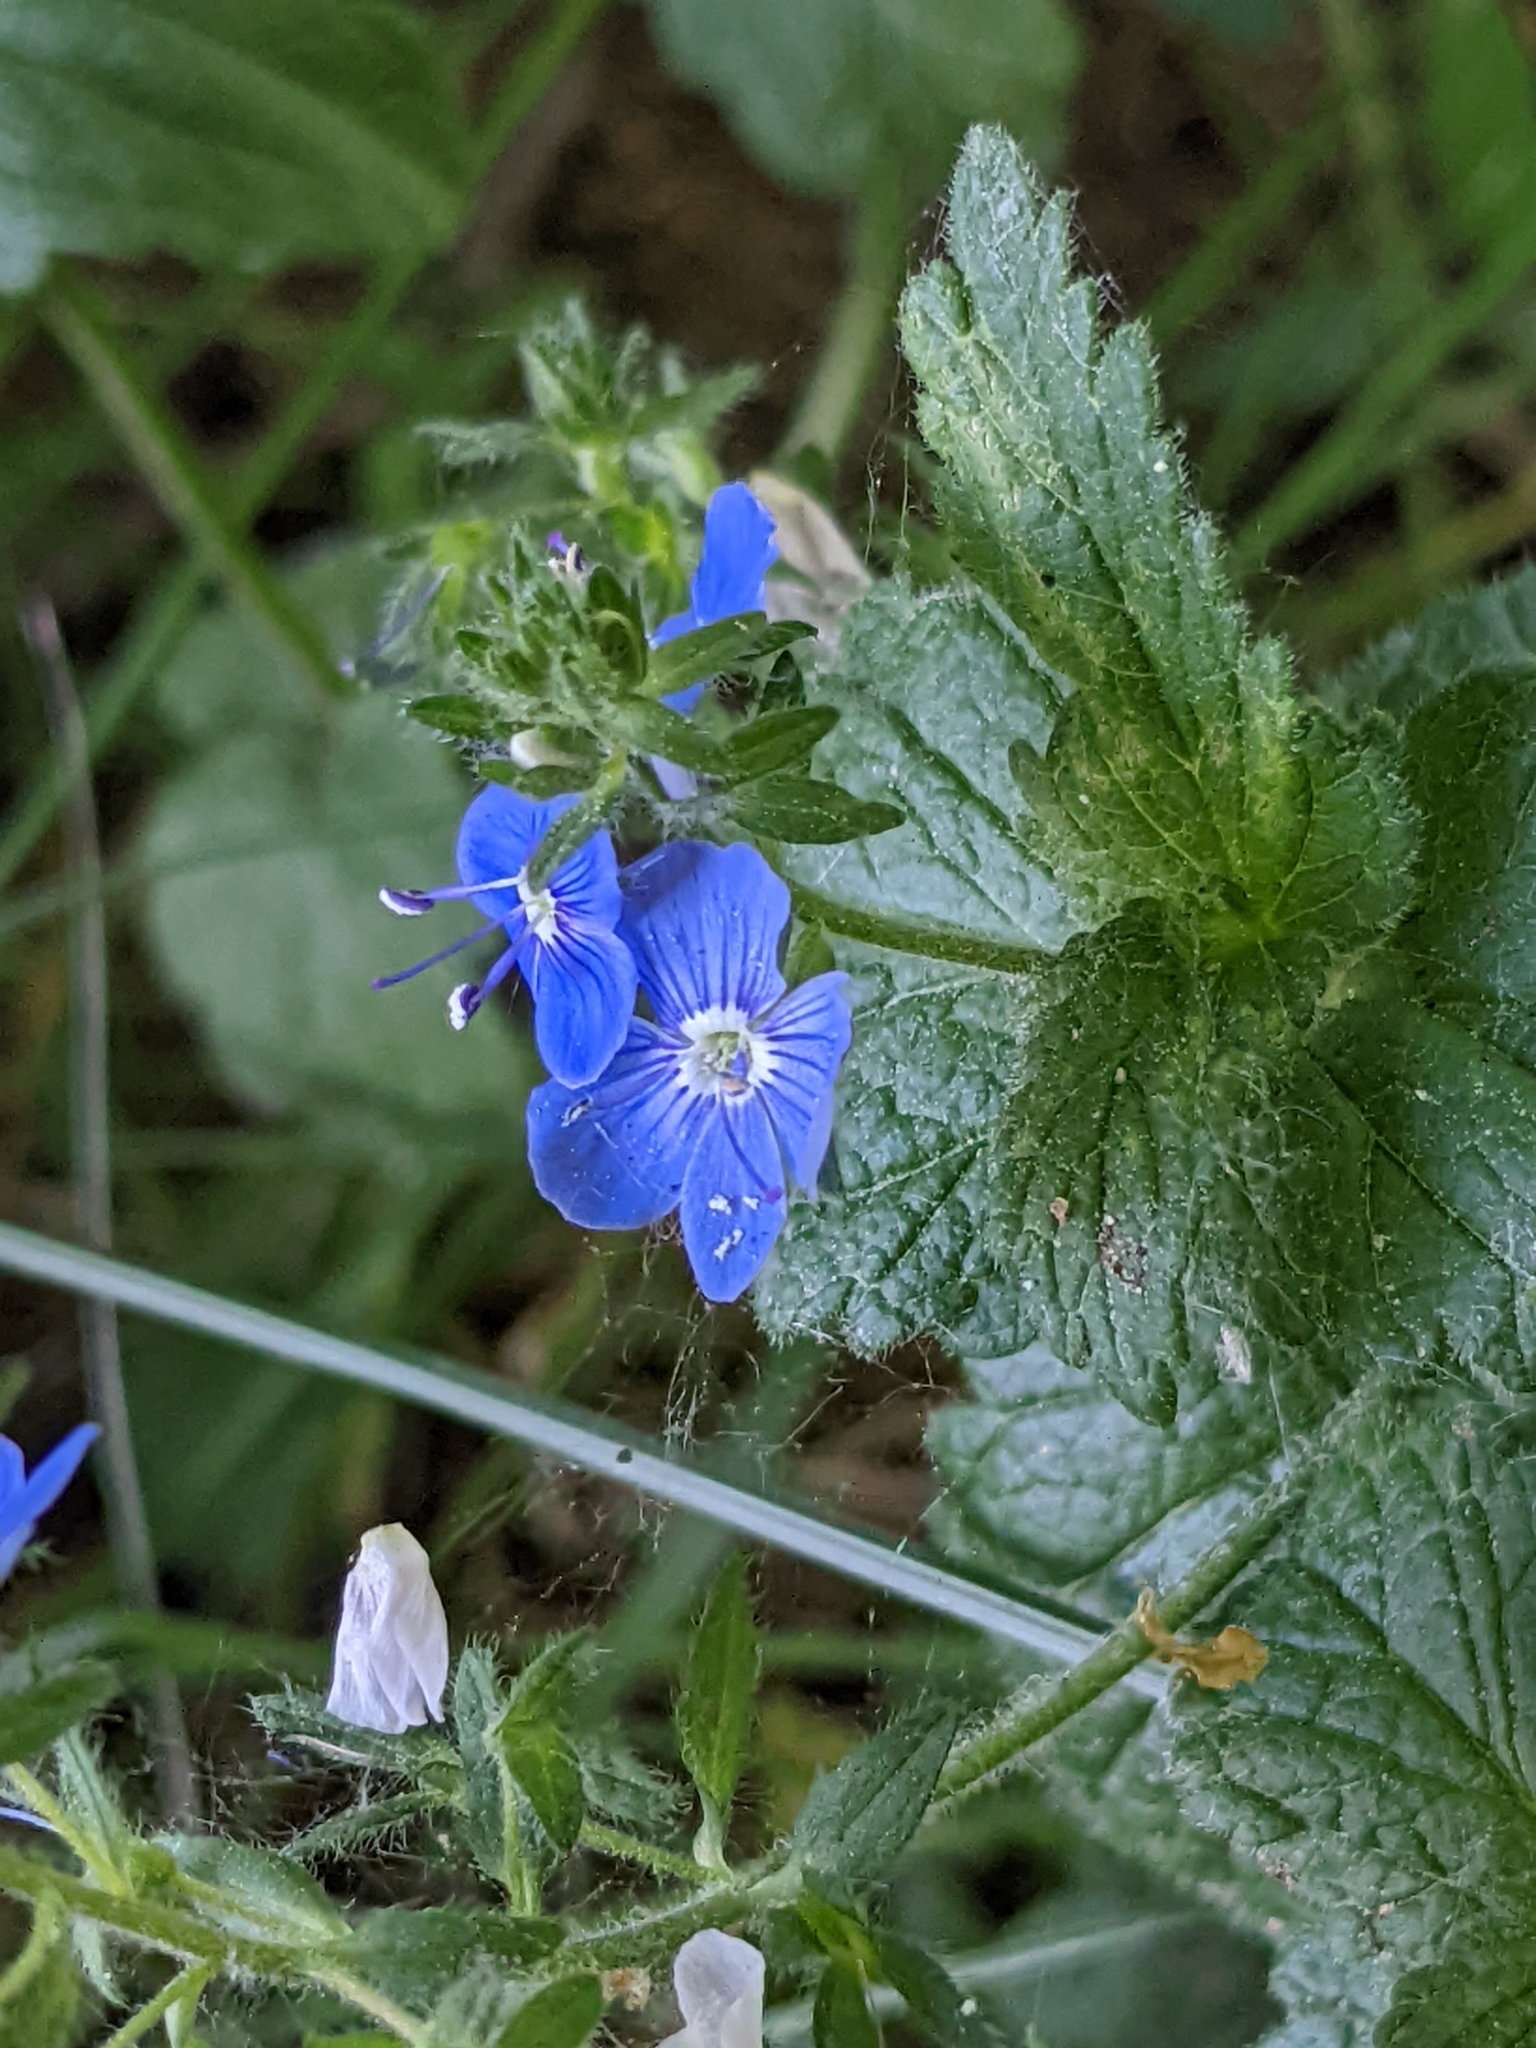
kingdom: Plantae
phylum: Tracheophyta
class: Magnoliopsida
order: Lamiales
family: Plantaginaceae
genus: Veronica
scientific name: Veronica chamaedrys
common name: Germander speedwell
